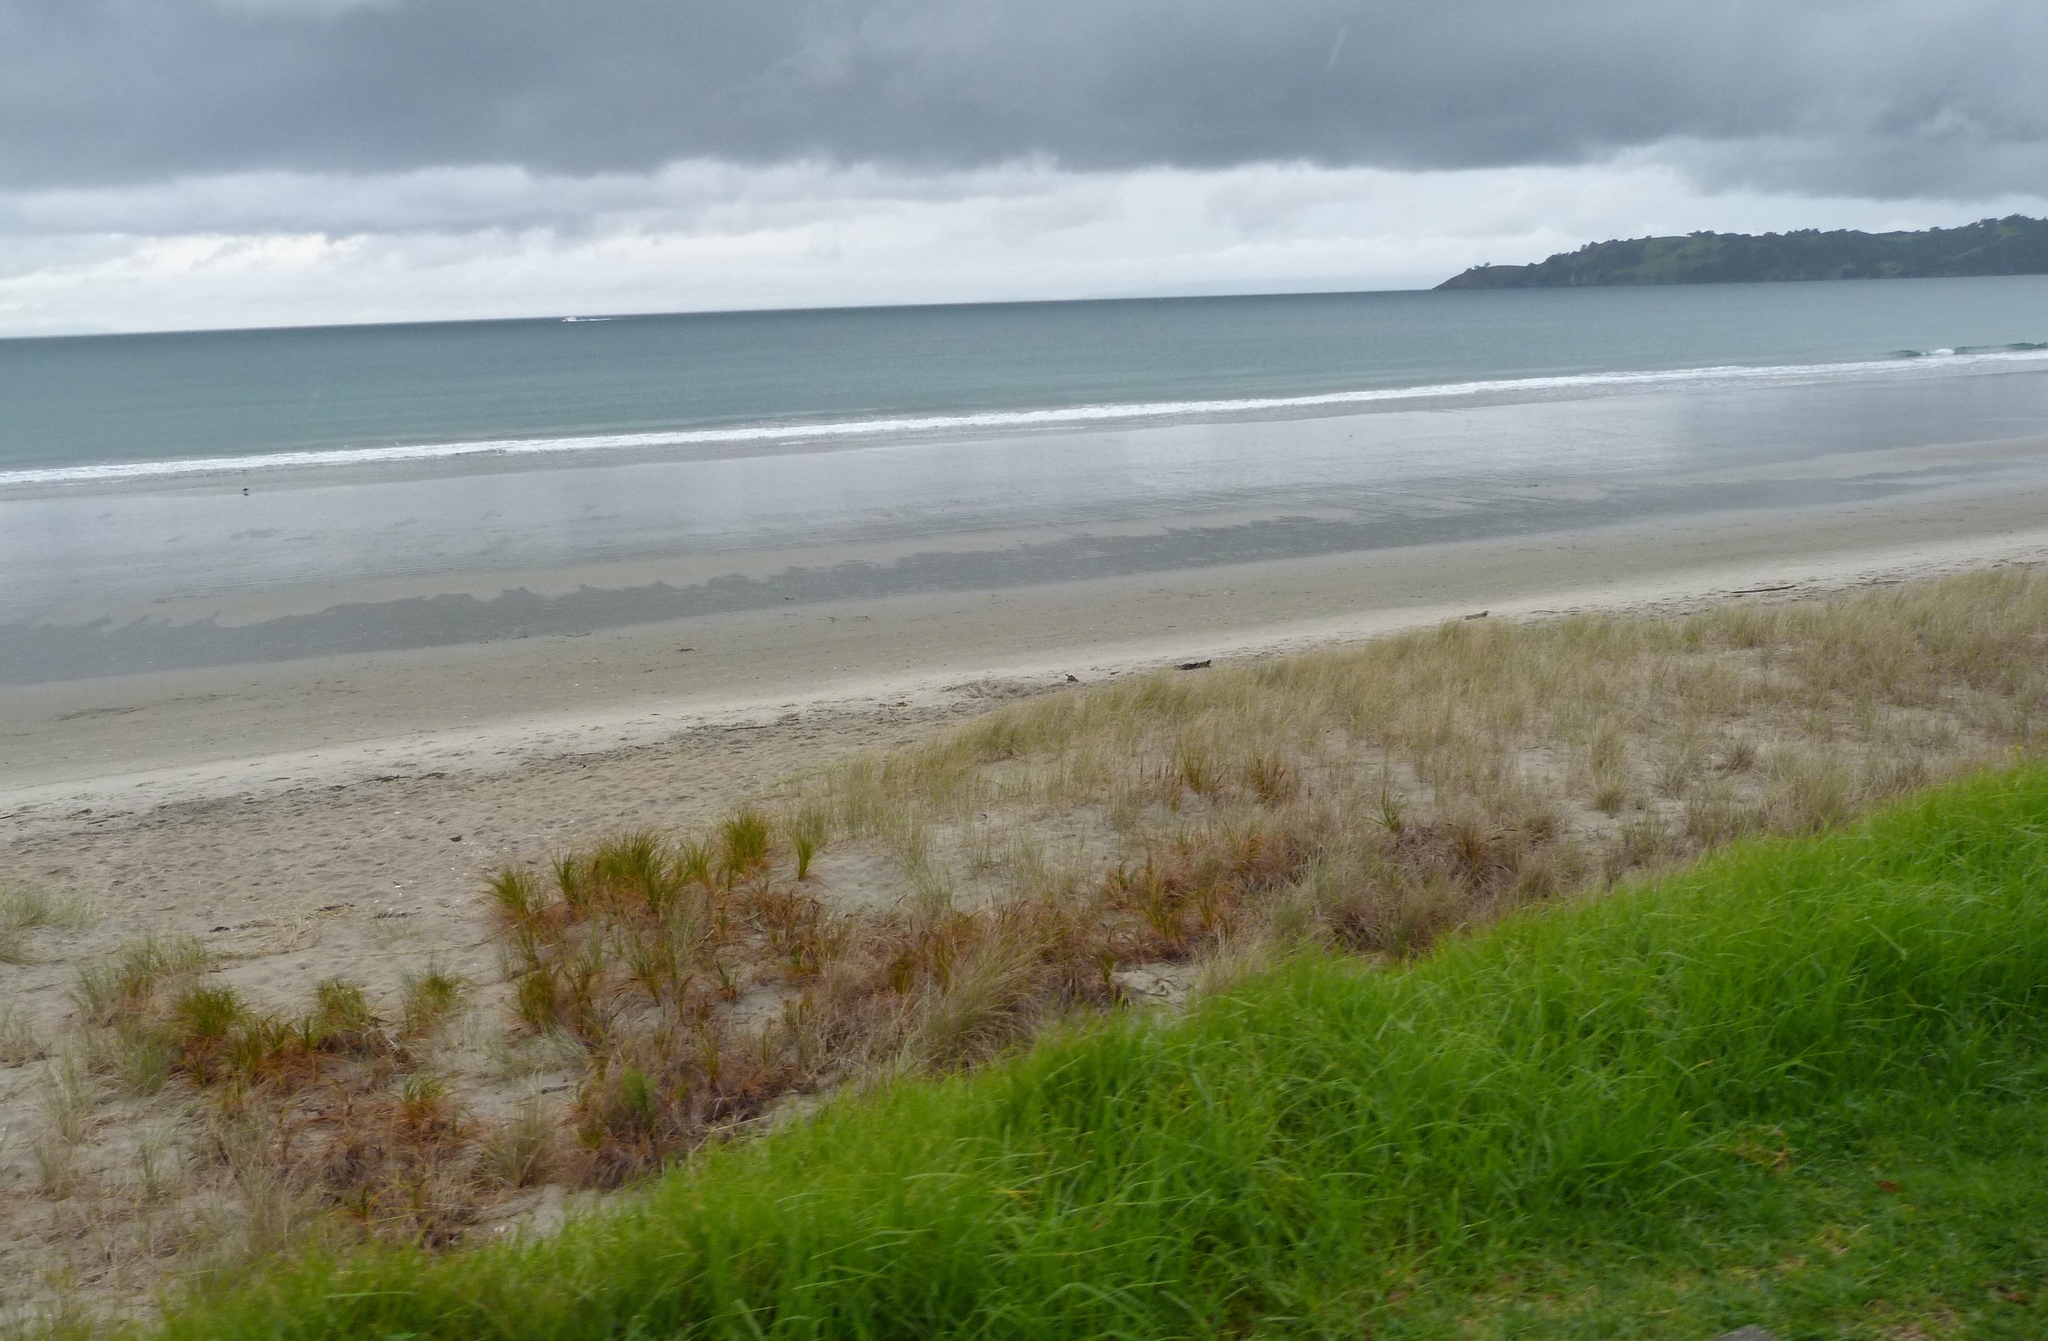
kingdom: Plantae
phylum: Tracheophyta
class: Liliopsida
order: Poales
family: Cyperaceae
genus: Ficinia
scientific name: Ficinia spiralis
